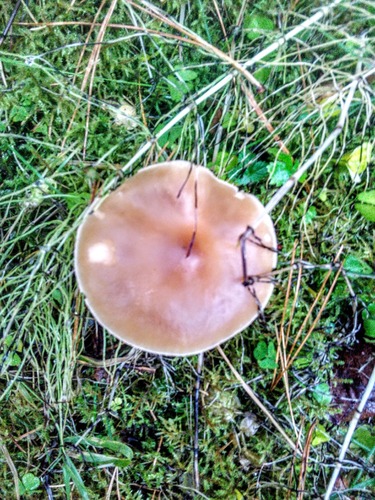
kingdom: Fungi
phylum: Basidiomycota
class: Agaricomycetes
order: Agaricales
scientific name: Agaricales
